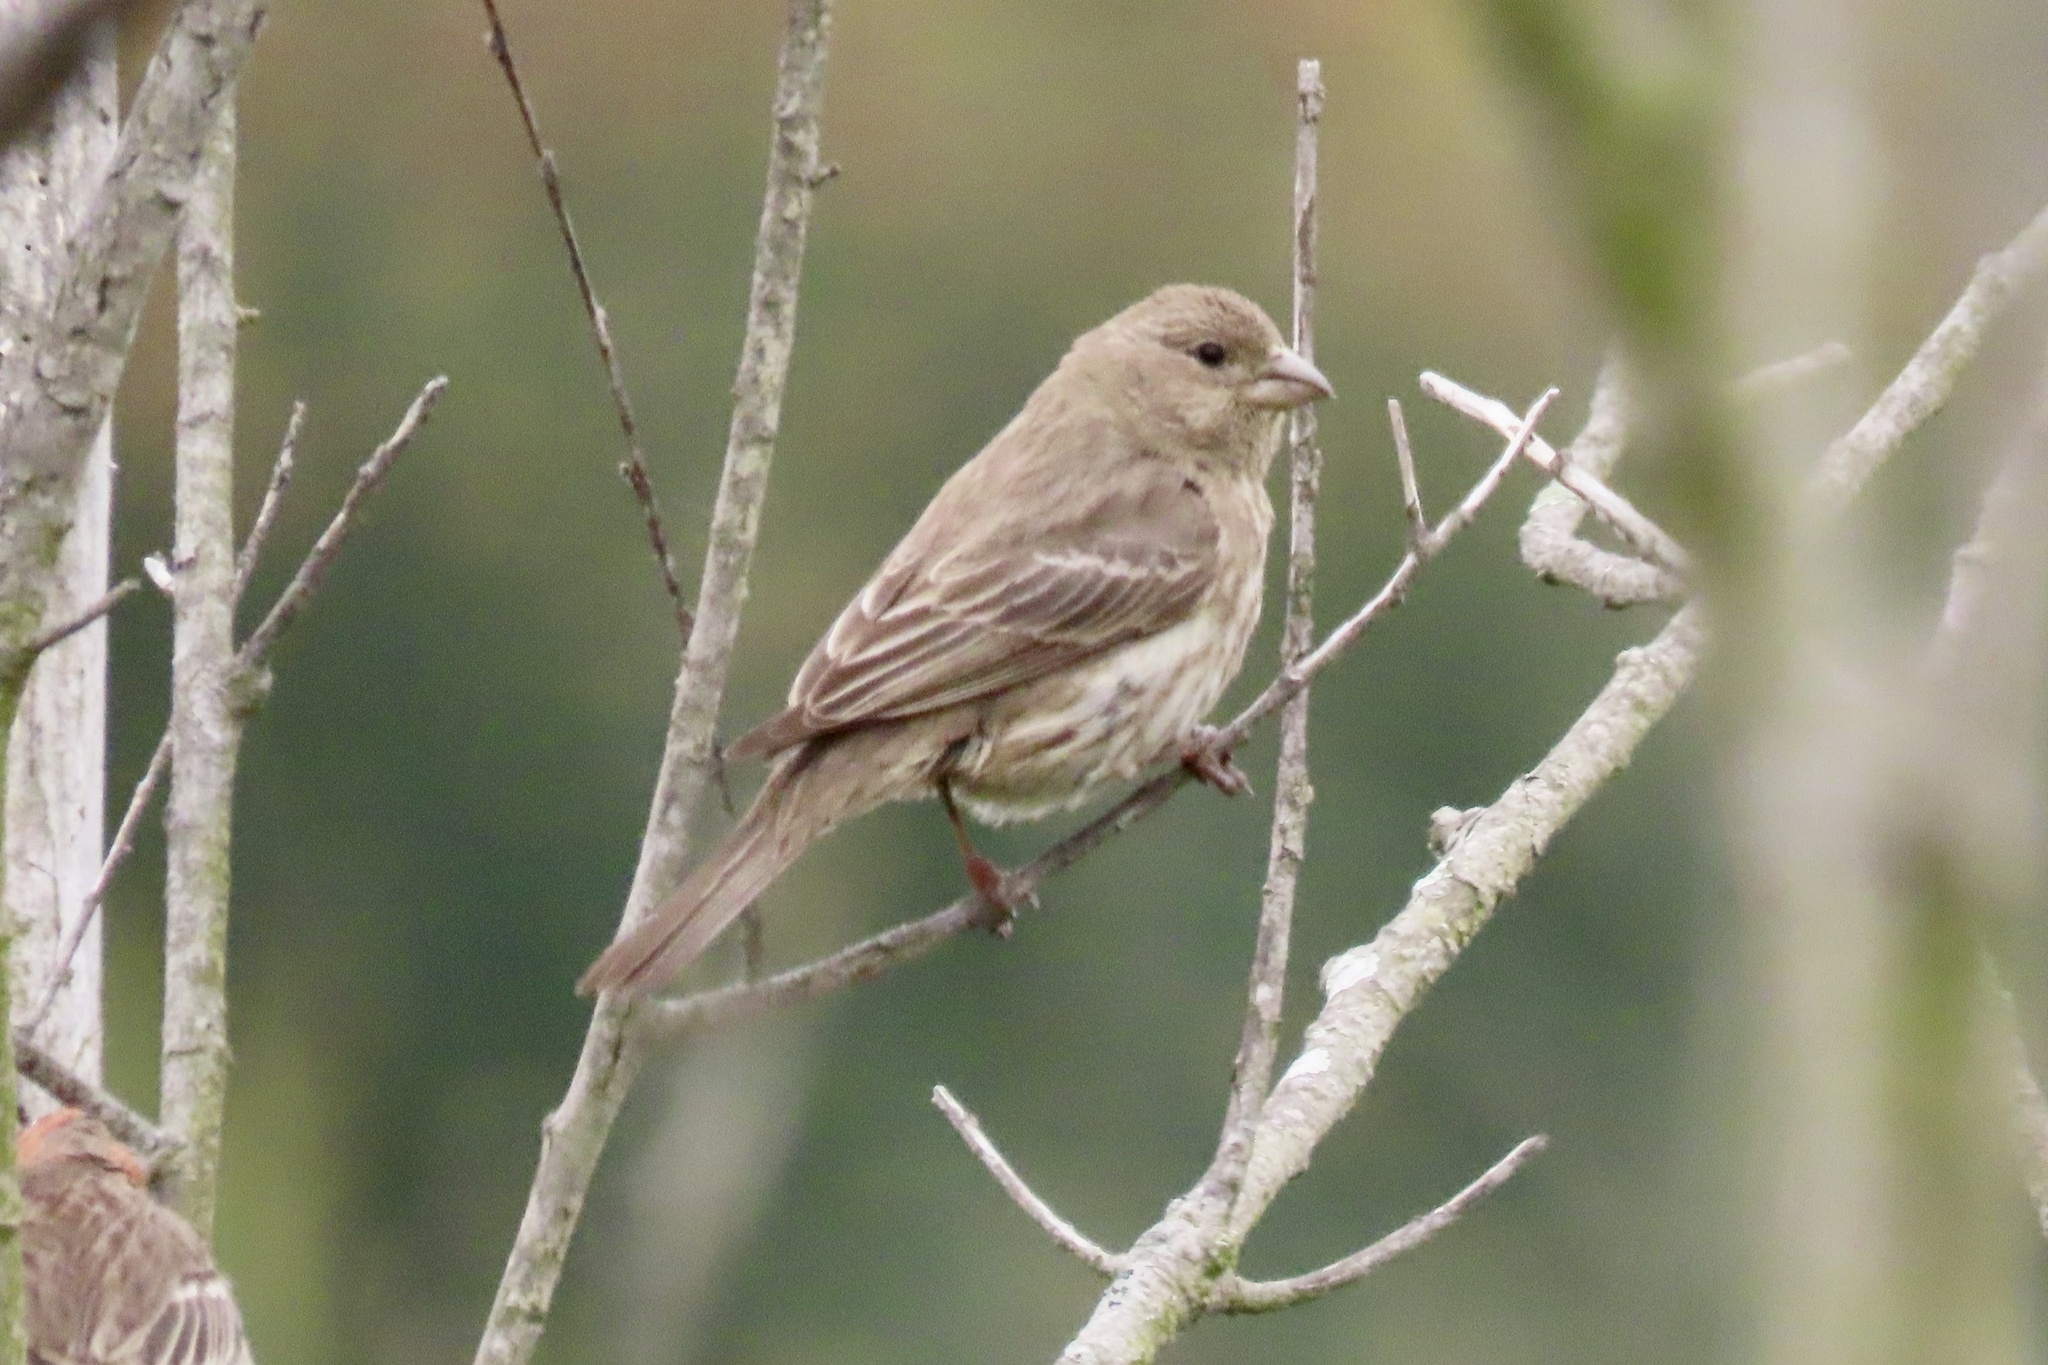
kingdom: Animalia
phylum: Chordata
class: Aves
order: Passeriformes
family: Fringillidae
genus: Haemorhous
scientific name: Haemorhous mexicanus
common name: House finch
